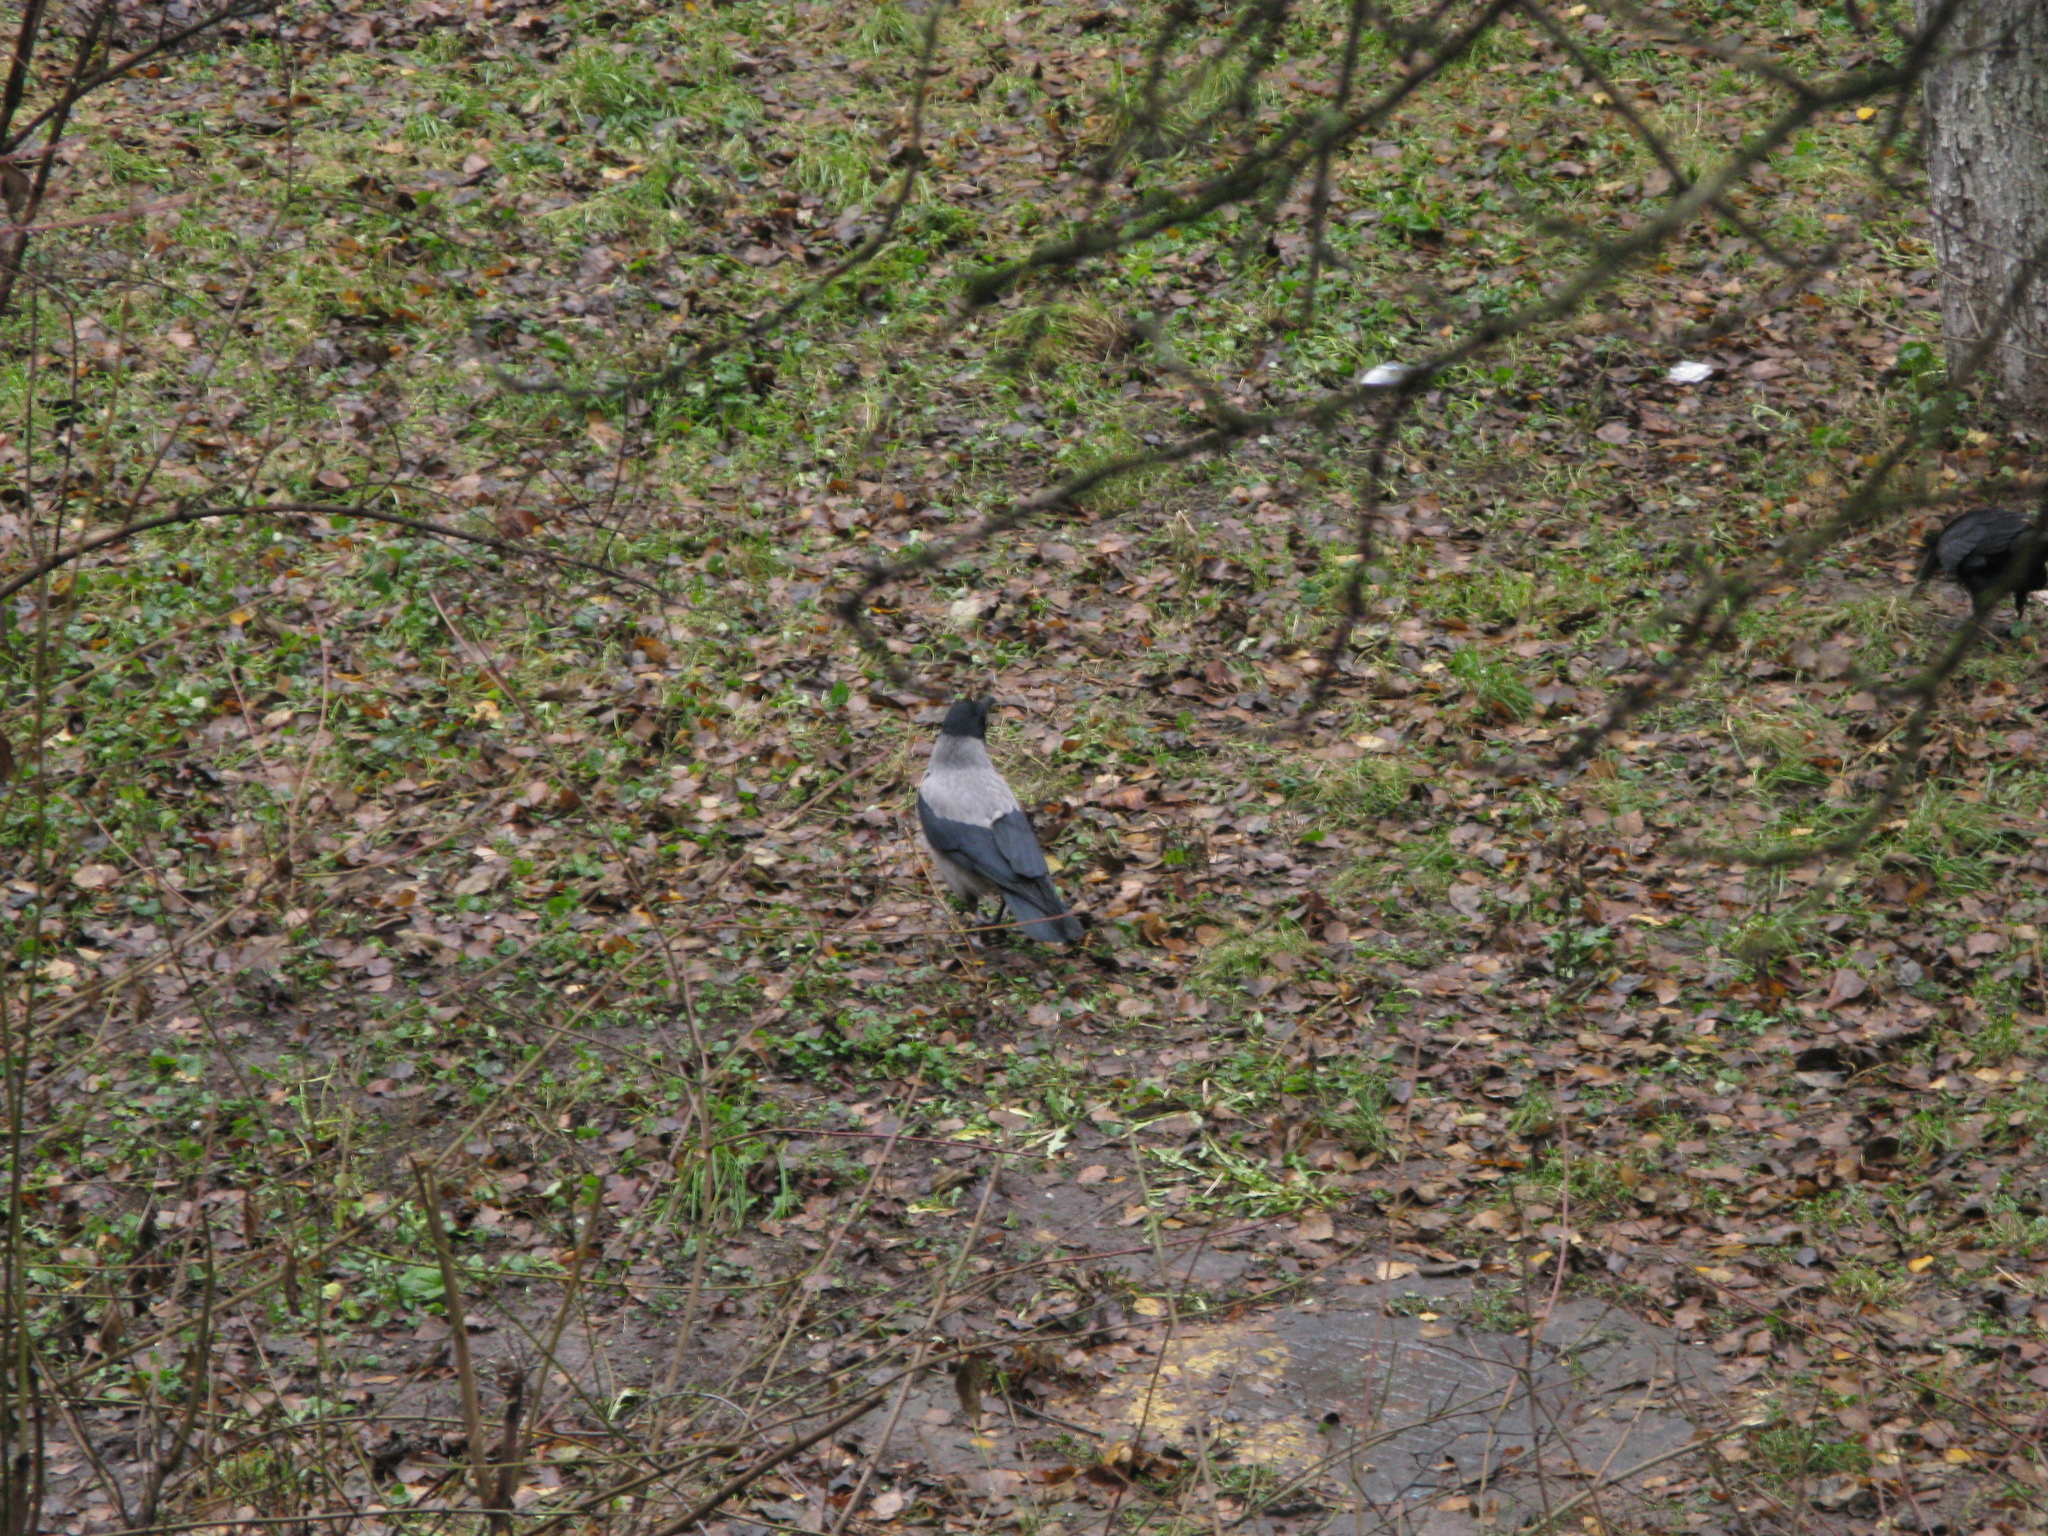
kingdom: Animalia
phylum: Chordata
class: Aves
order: Passeriformes
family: Corvidae
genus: Corvus
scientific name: Corvus cornix
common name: Hooded crow
